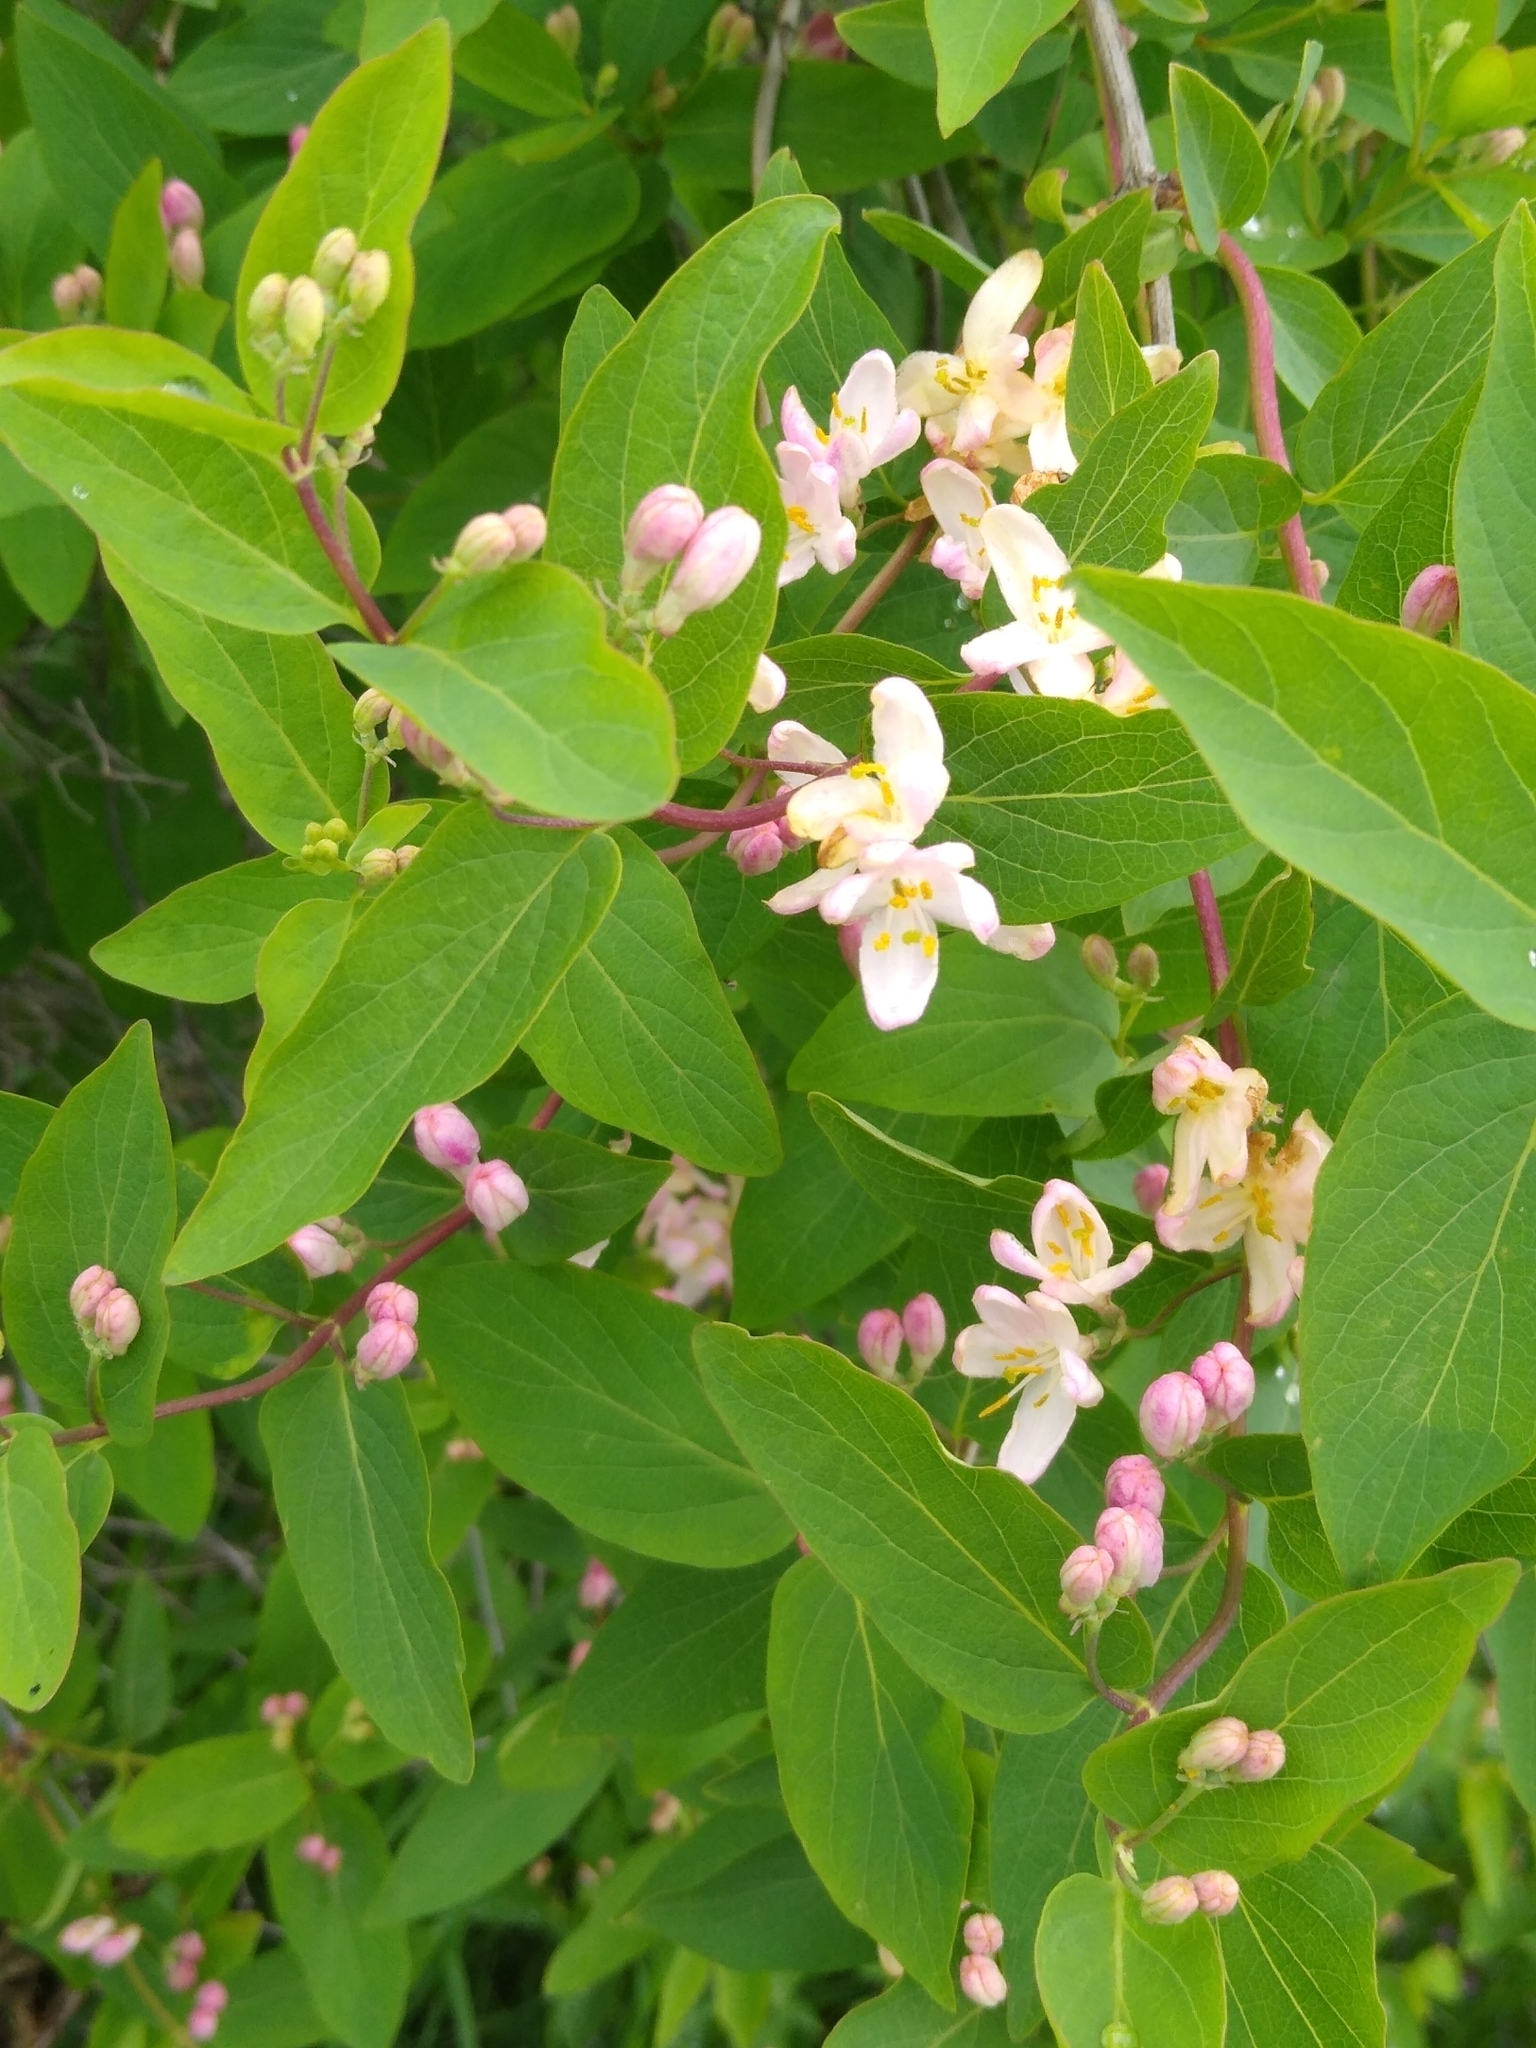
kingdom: Plantae
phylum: Tracheophyta
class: Magnoliopsida
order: Dipsacales
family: Caprifoliaceae
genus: Lonicera
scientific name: Lonicera tatarica
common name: Tatarian honeysuckle
